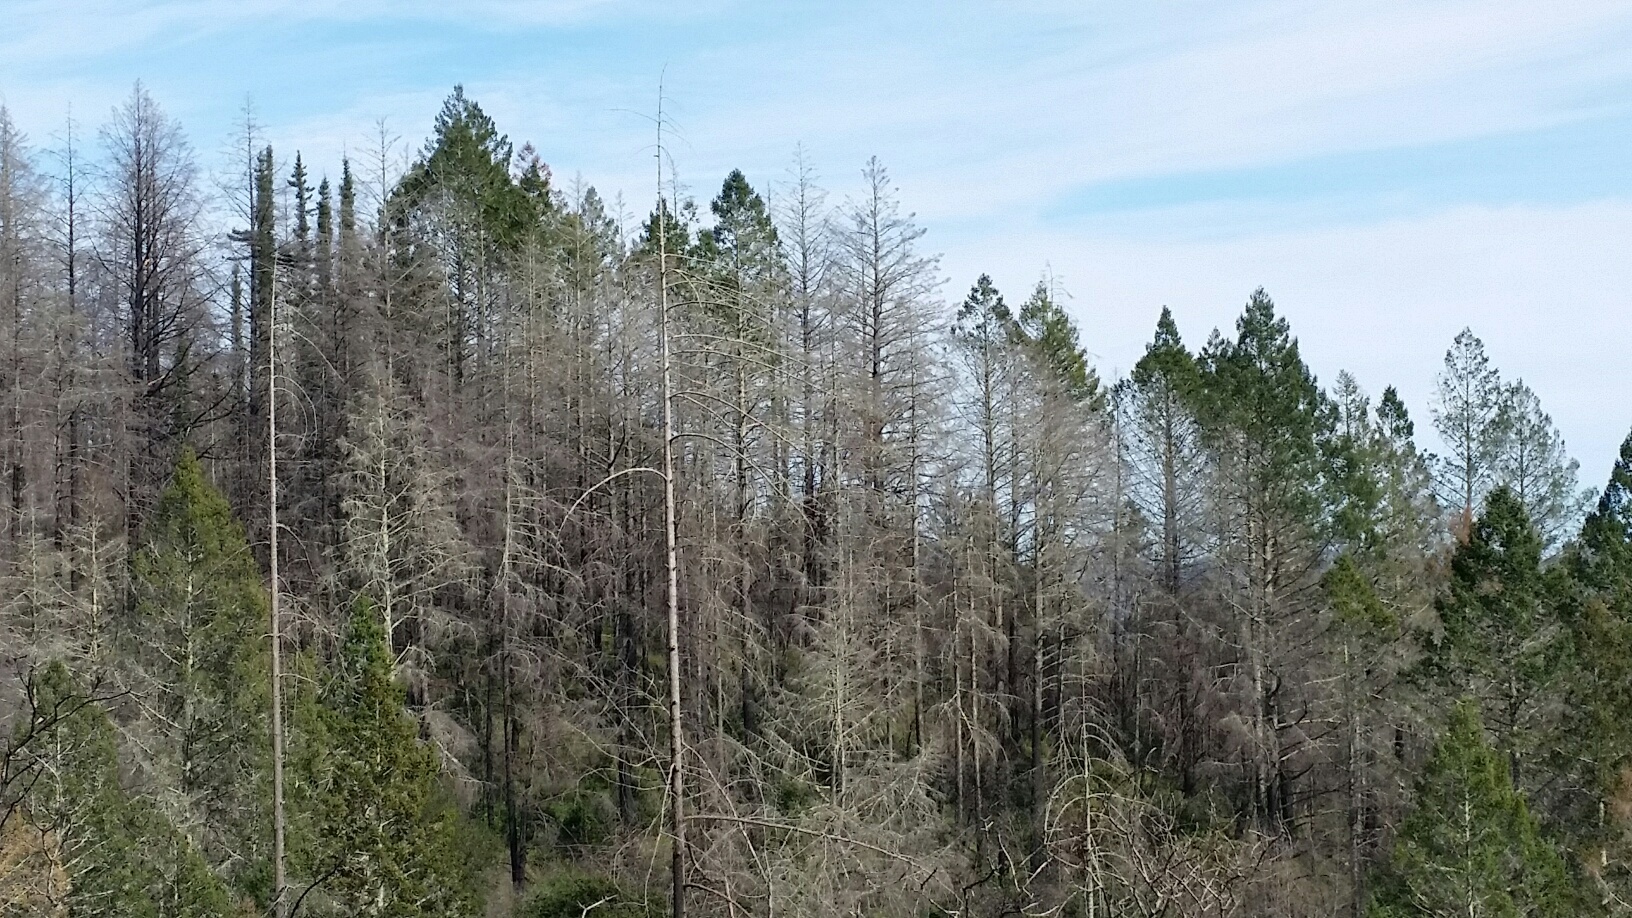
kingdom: Plantae
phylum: Tracheophyta
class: Pinopsida
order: Pinales
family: Pinaceae
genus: Pseudotsuga
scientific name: Pseudotsuga menziesii
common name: Douglas fir
